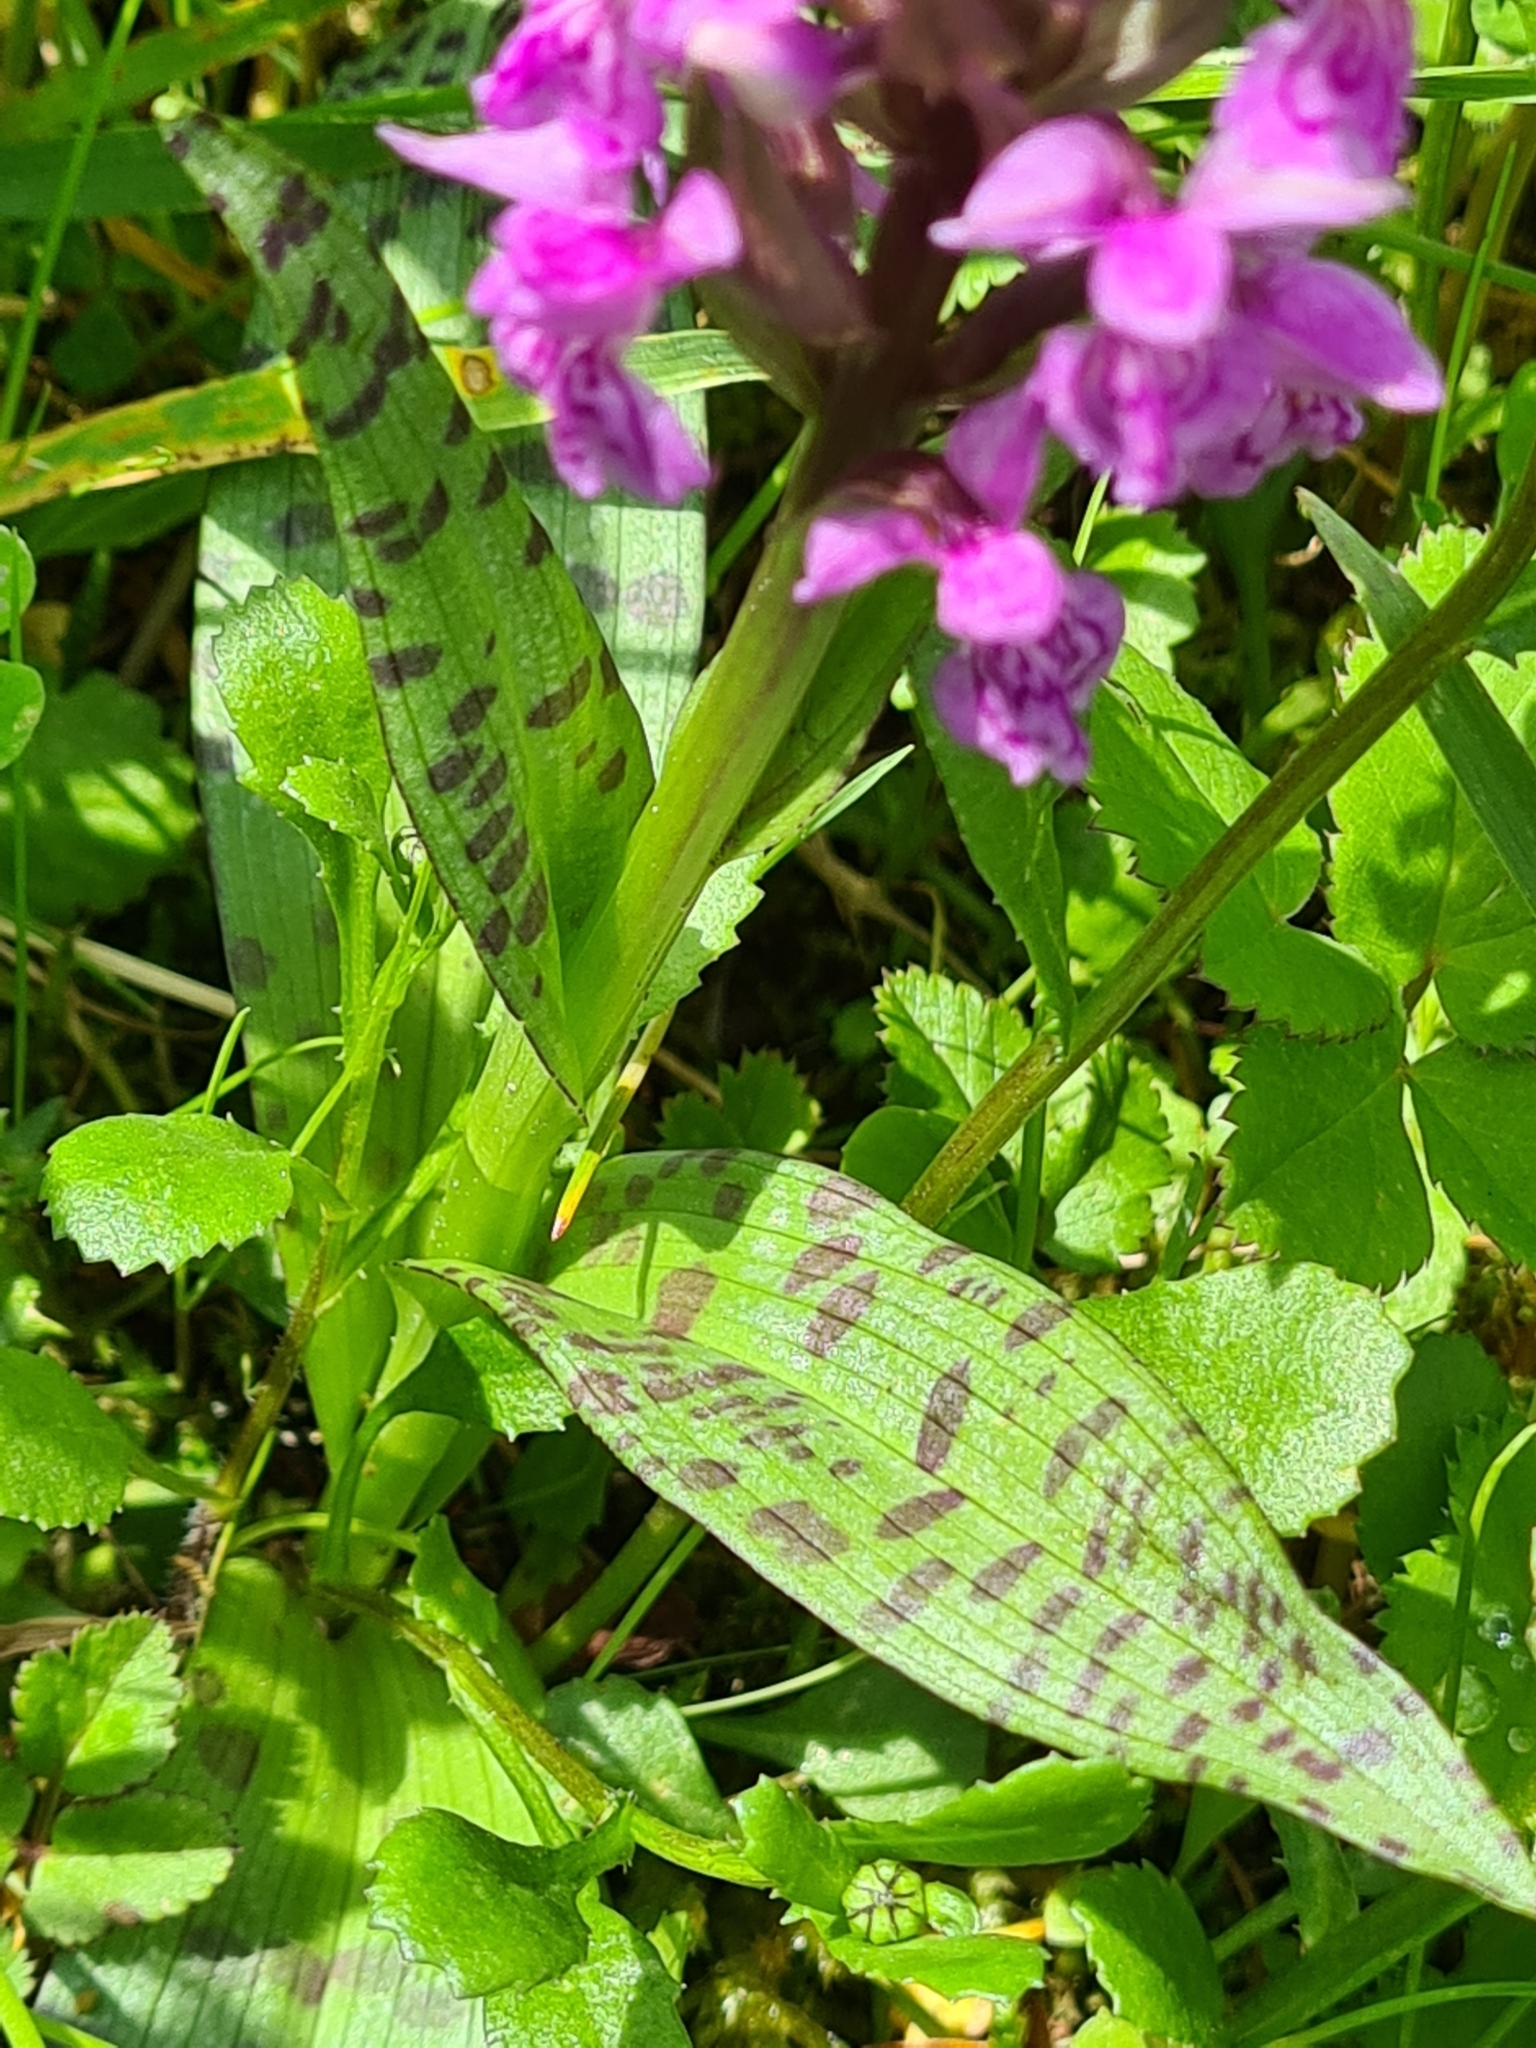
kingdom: Plantae
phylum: Tracheophyta
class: Liliopsida
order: Asparagales
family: Orchidaceae
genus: Dactylorhiza
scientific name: Dactylorhiza majalis
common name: Marsh orchid
